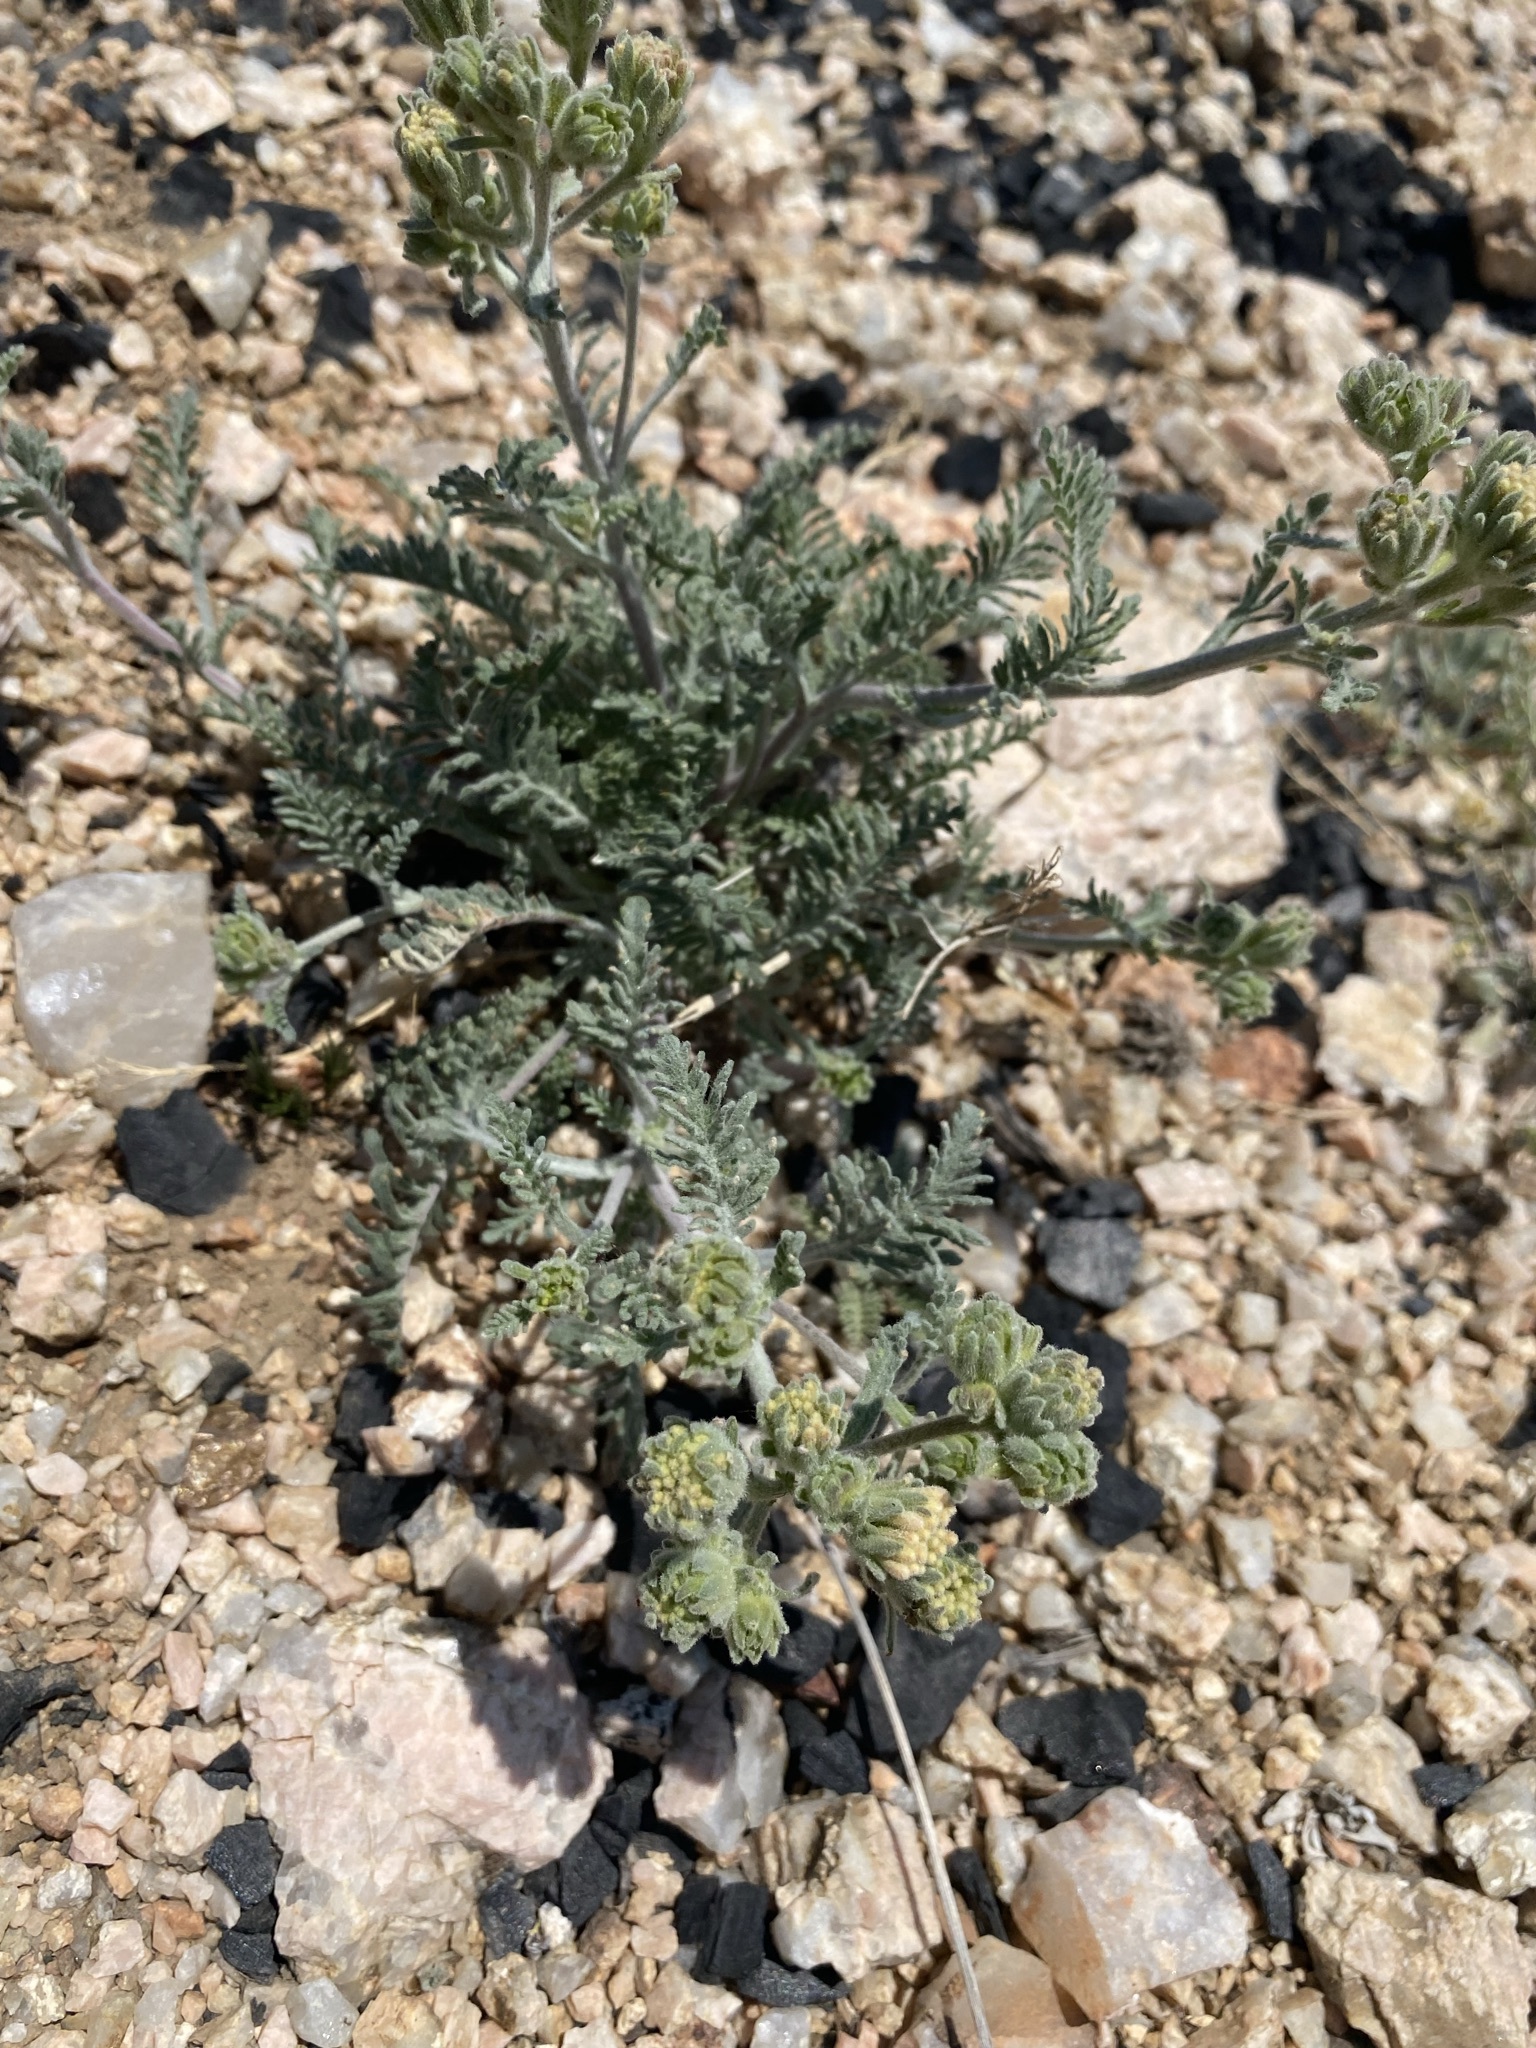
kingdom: Plantae
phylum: Tracheophyta
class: Magnoliopsida
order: Asterales
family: Asteraceae
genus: Chaenactis
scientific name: Chaenactis douglasii
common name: Hoary pincushion
